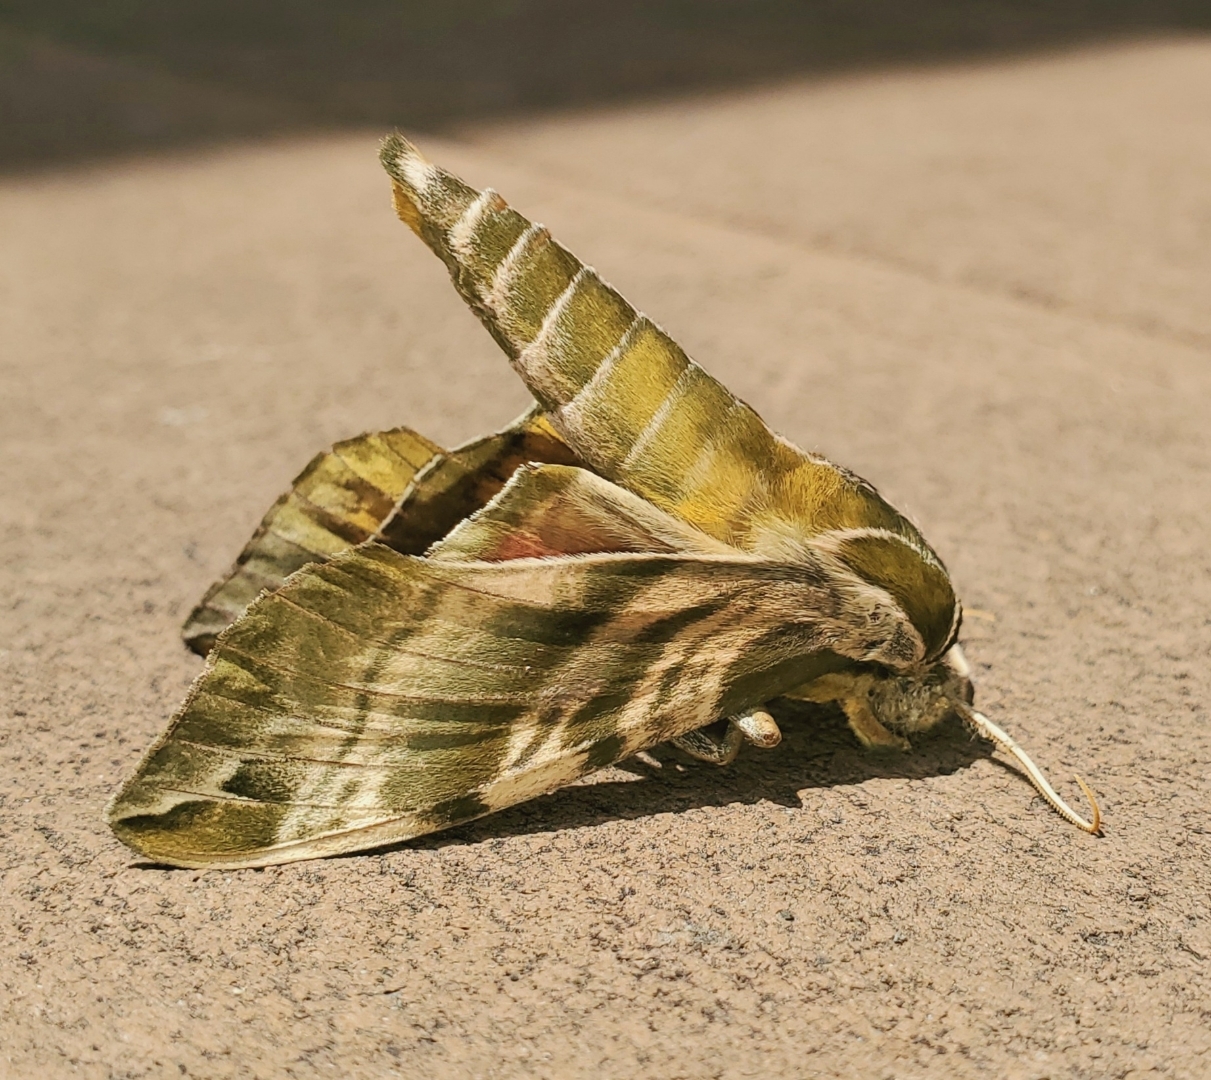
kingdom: Animalia
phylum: Arthropoda
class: Insecta
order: Lepidoptera
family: Sphingidae
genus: Darapsa
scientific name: Darapsa versicolor
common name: Hydrangea sphinx
